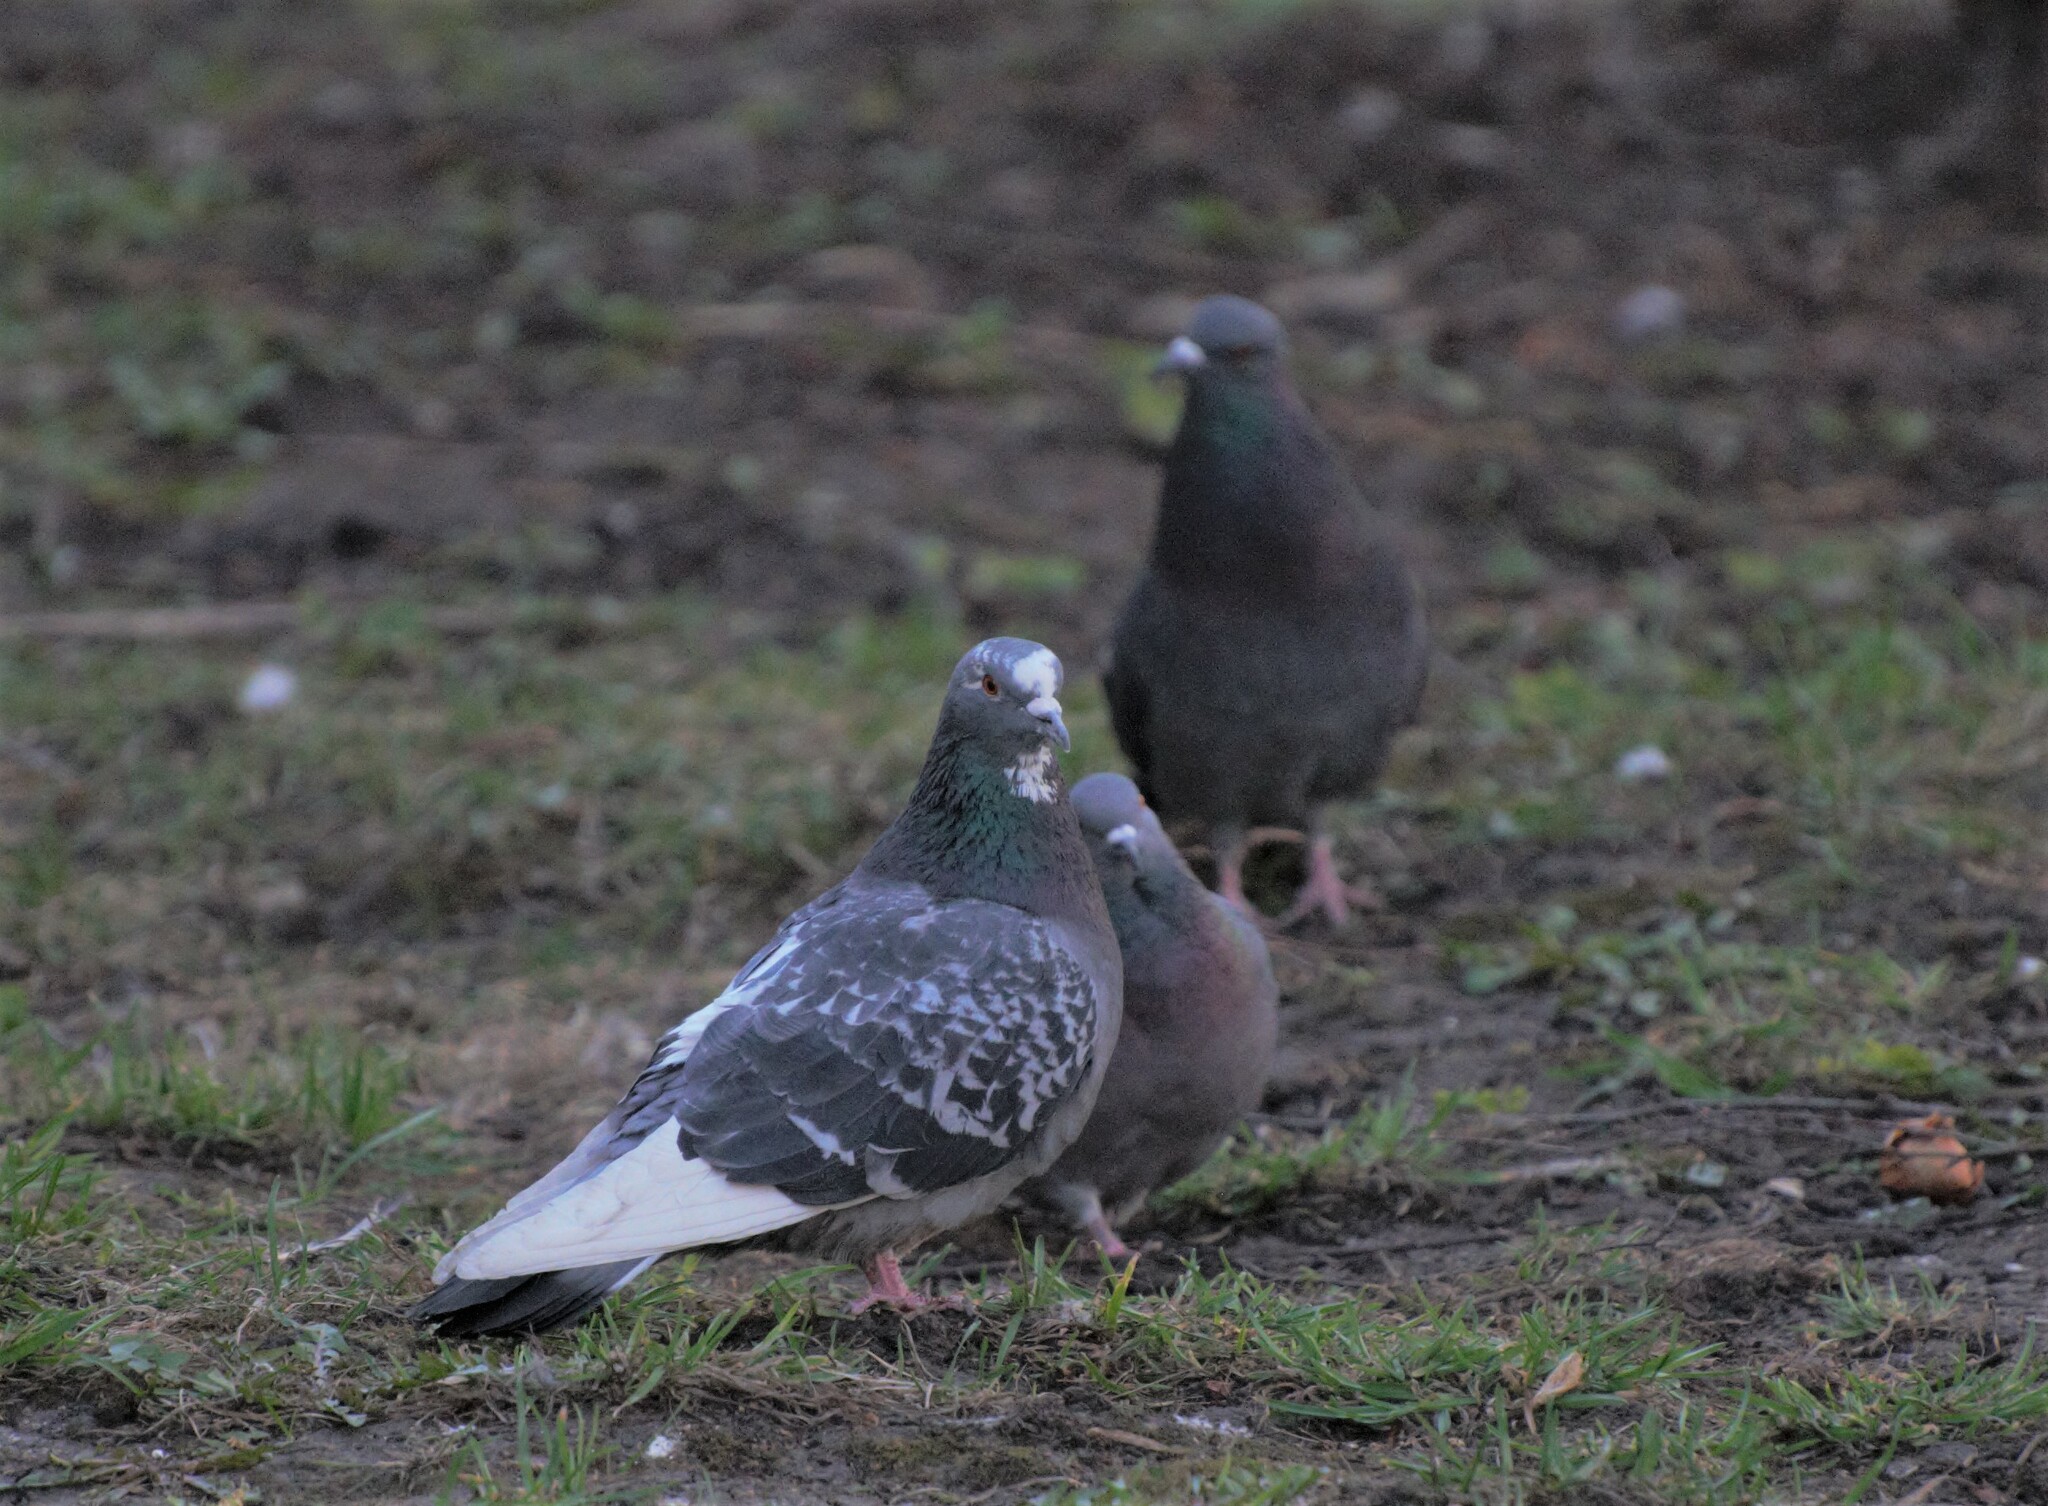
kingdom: Animalia
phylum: Chordata
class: Aves
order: Columbiformes
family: Columbidae
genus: Columba
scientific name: Columba livia
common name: Rock pigeon
